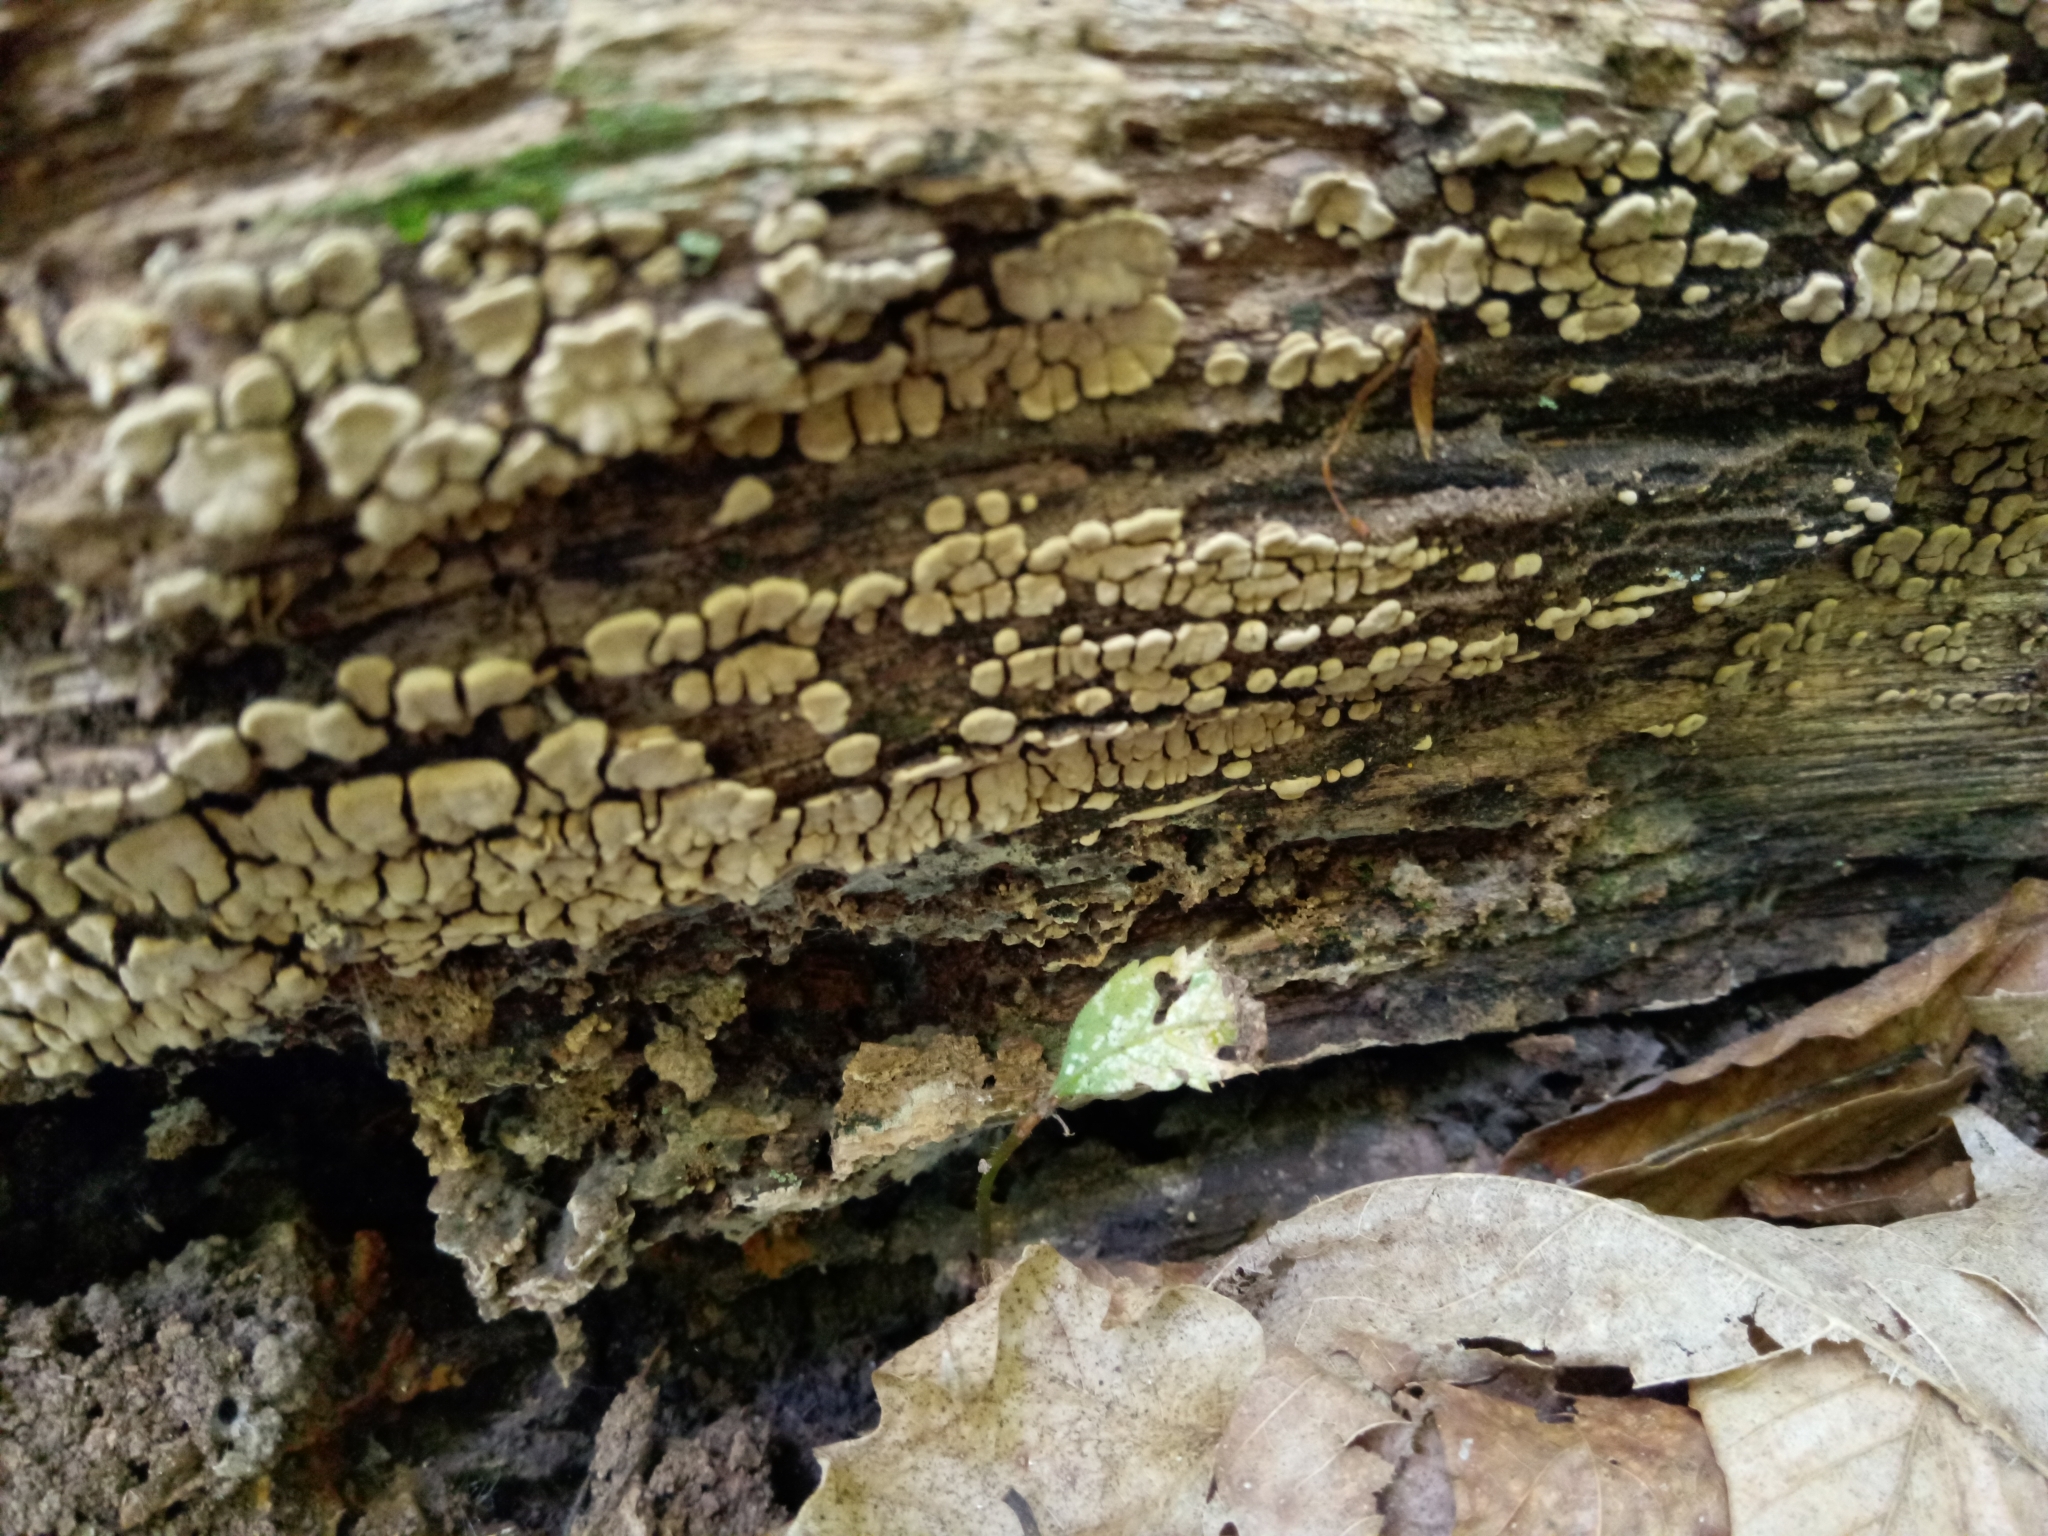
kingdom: Fungi
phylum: Basidiomycota
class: Agaricomycetes
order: Russulales
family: Stereaceae
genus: Xylobolus
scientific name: Xylobolus frustulatus
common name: Ceramic parchment
